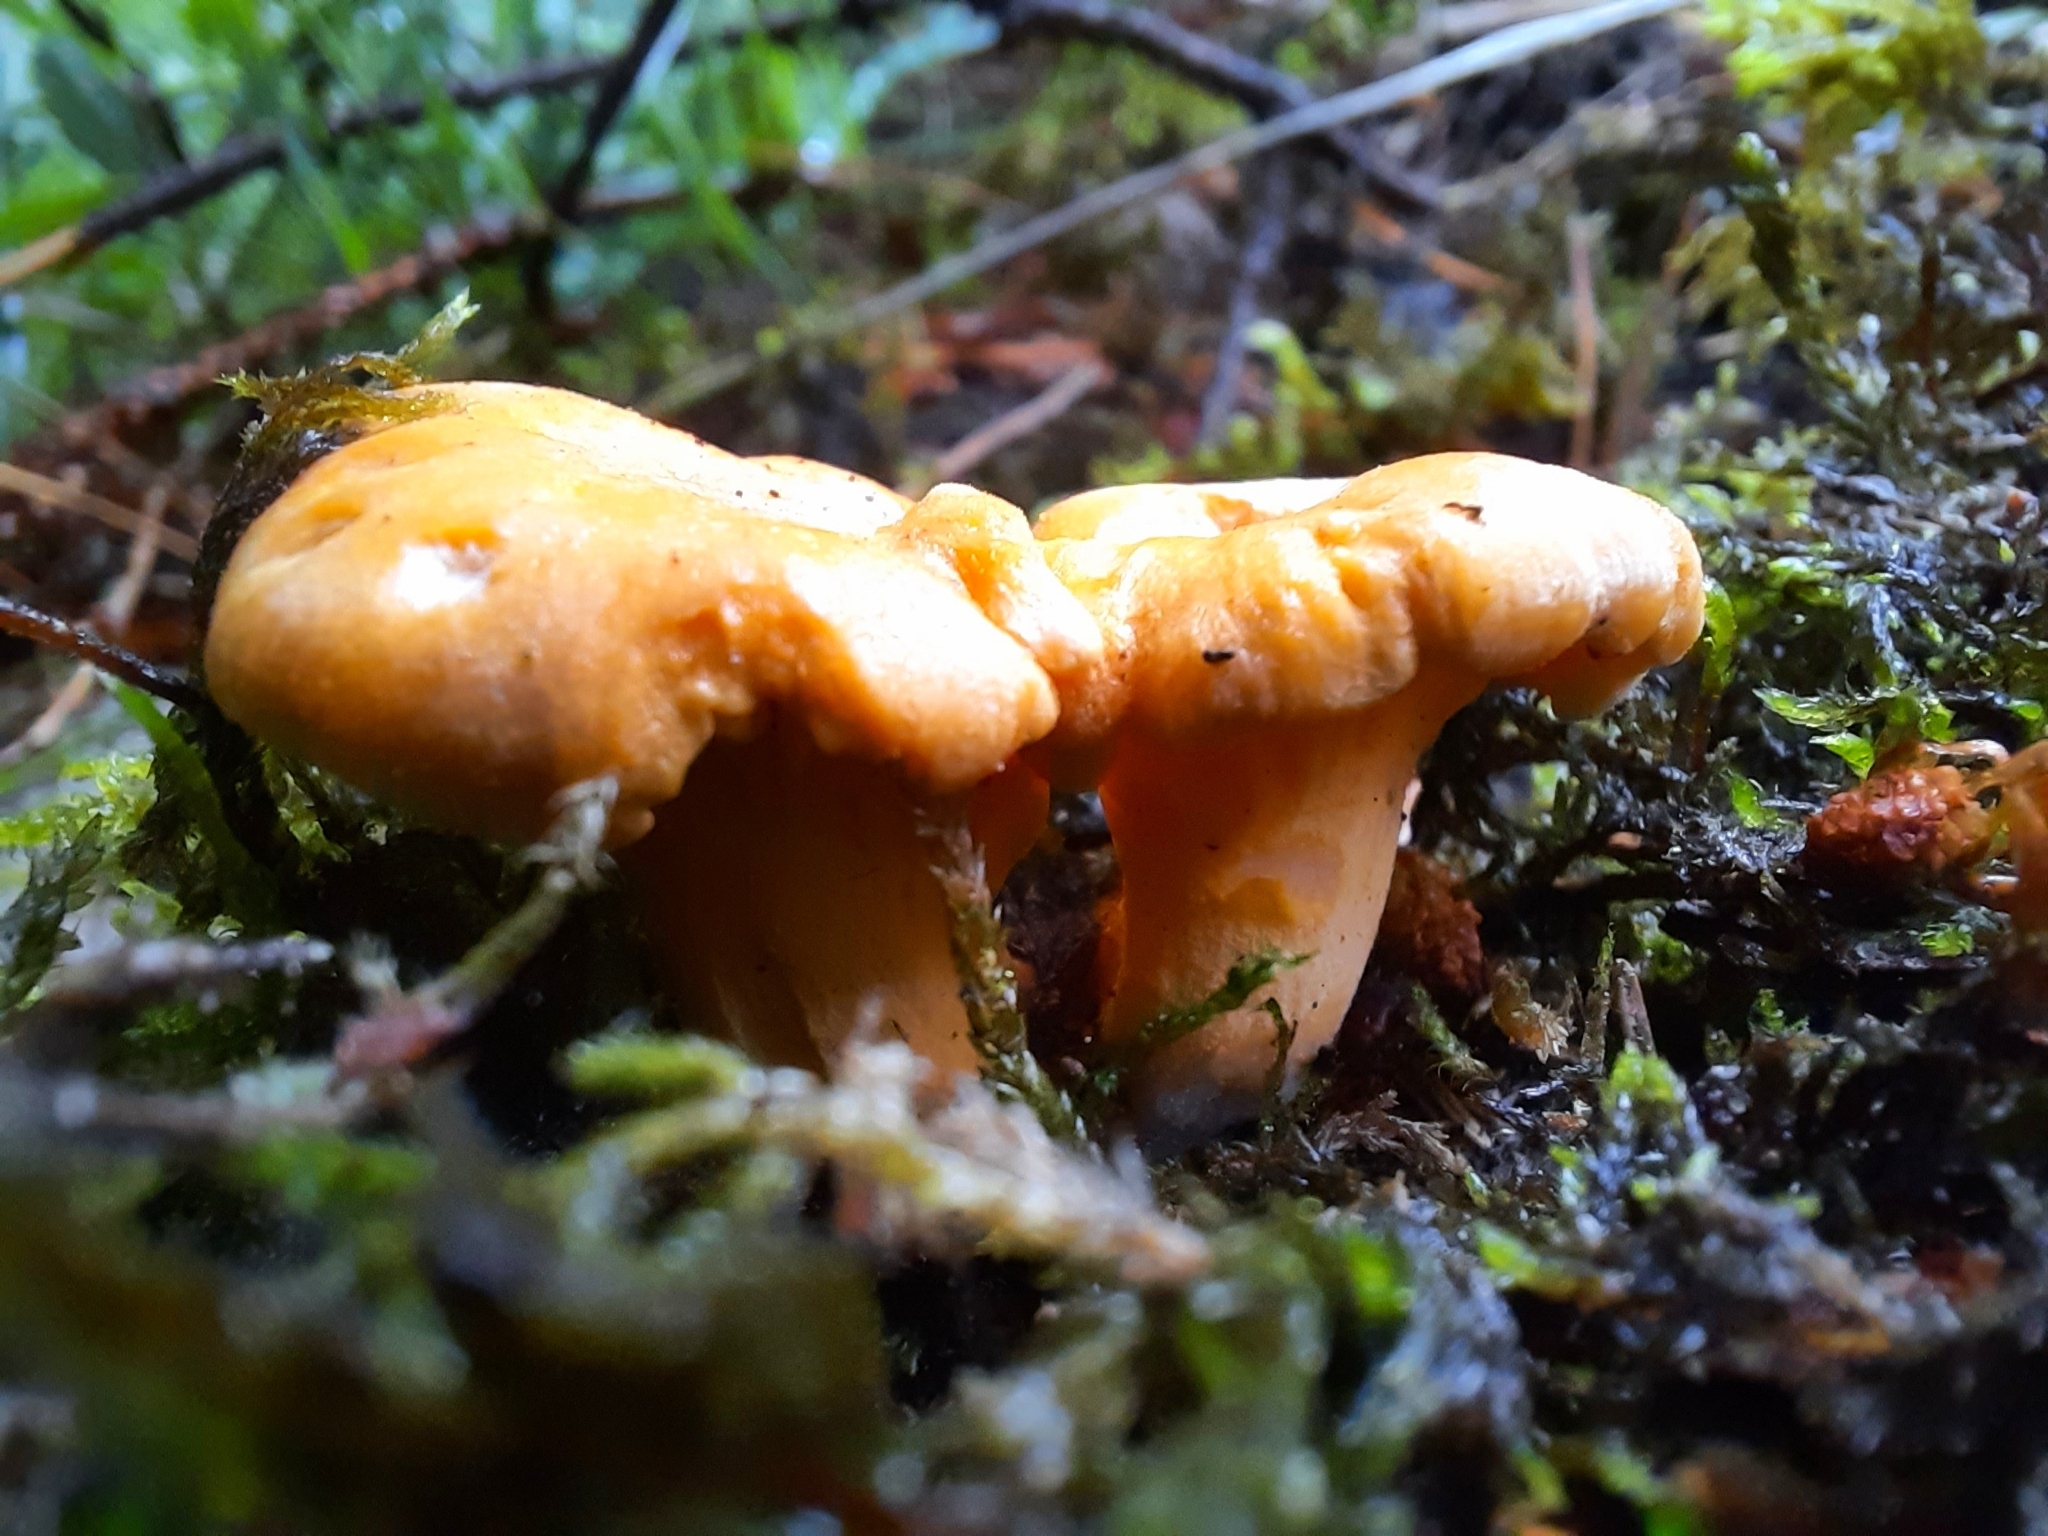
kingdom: Fungi
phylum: Basidiomycota
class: Agaricomycetes
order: Cantharellales
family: Hydnaceae
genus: Cantharellus
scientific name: Cantharellus cibarius
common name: Chanterelle
